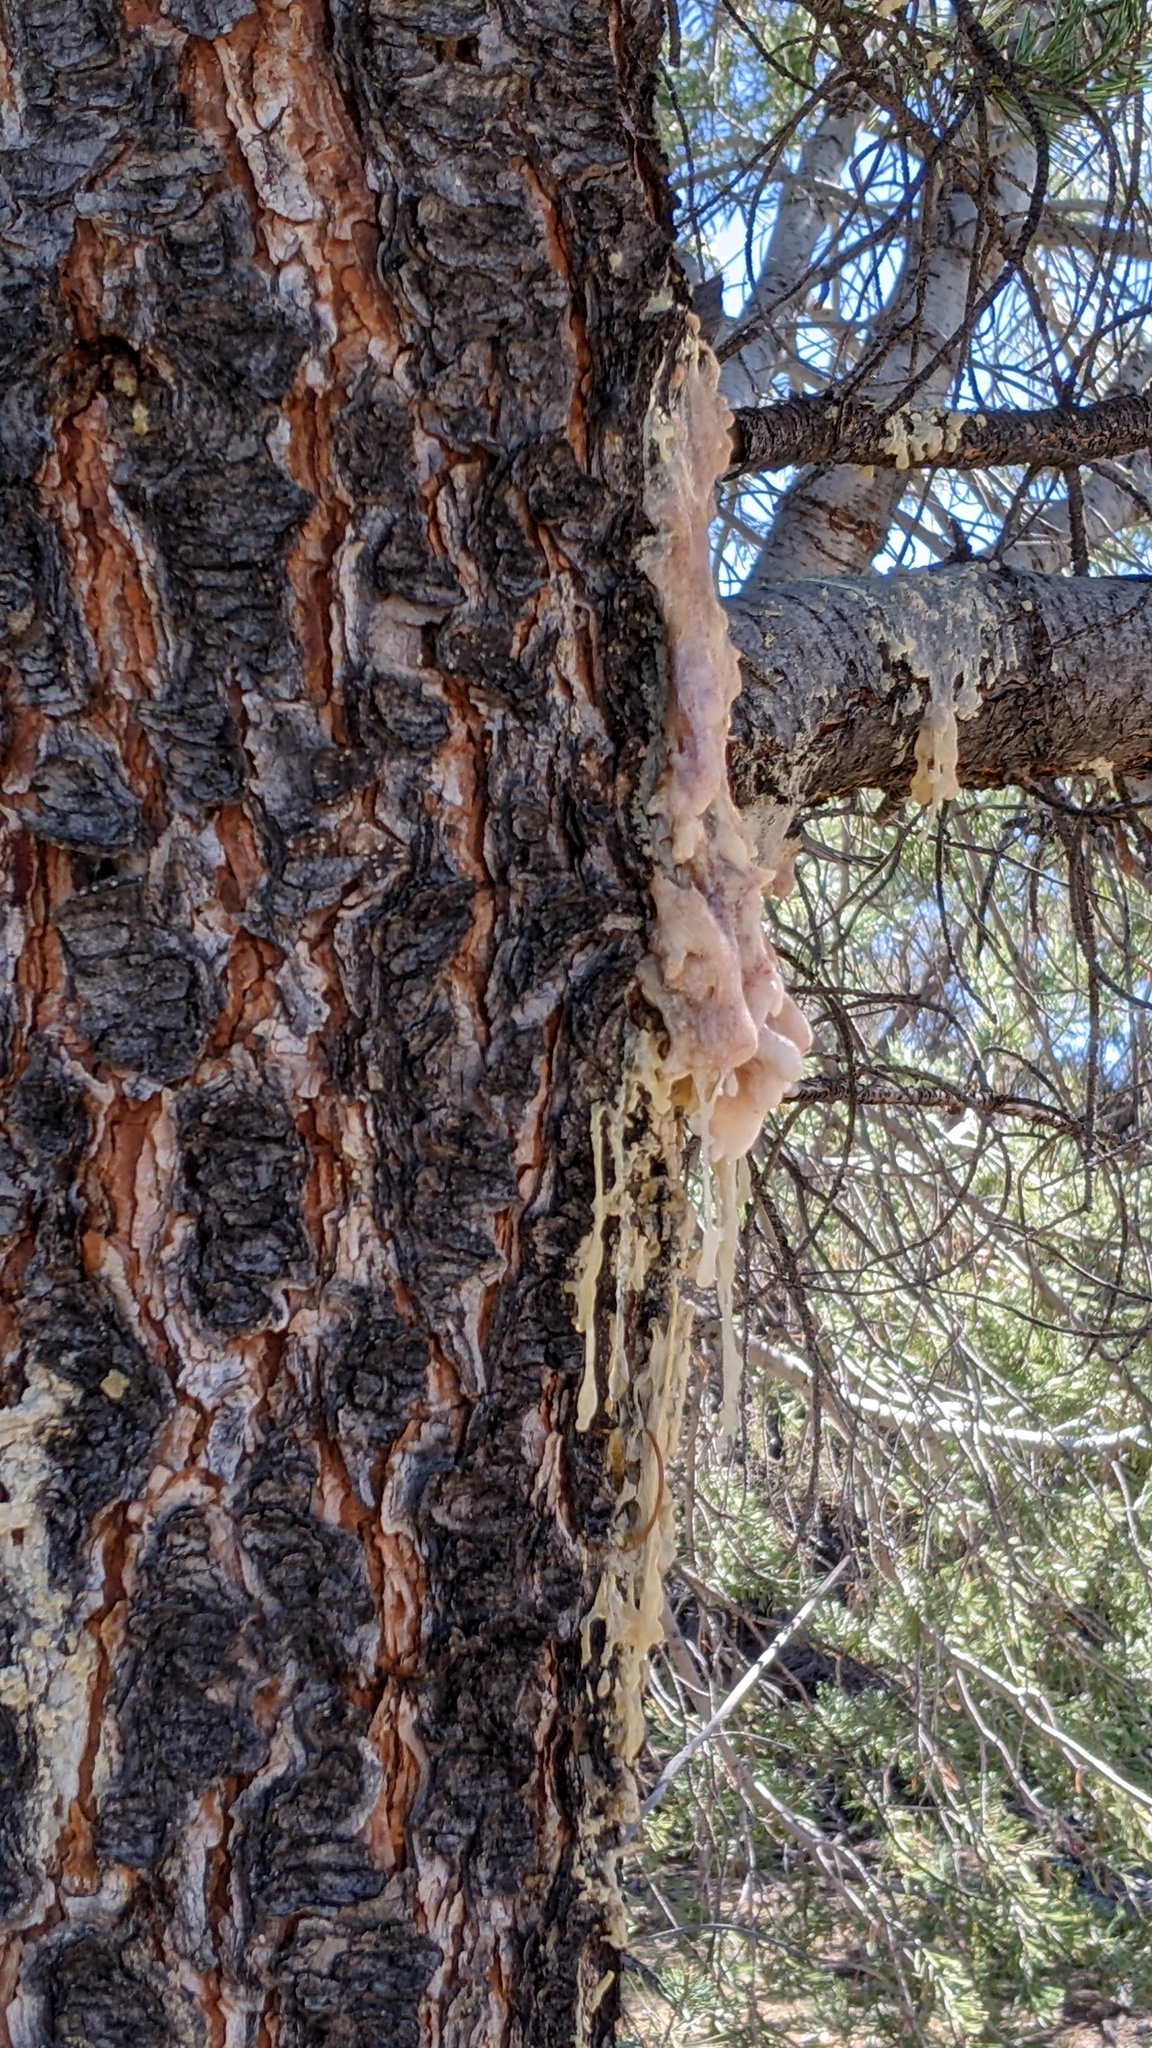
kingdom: Plantae
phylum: Tracheophyta
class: Pinopsida
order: Pinales
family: Pinaceae
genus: Pinus
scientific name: Pinus quadrifolia
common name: Parry pinyon
